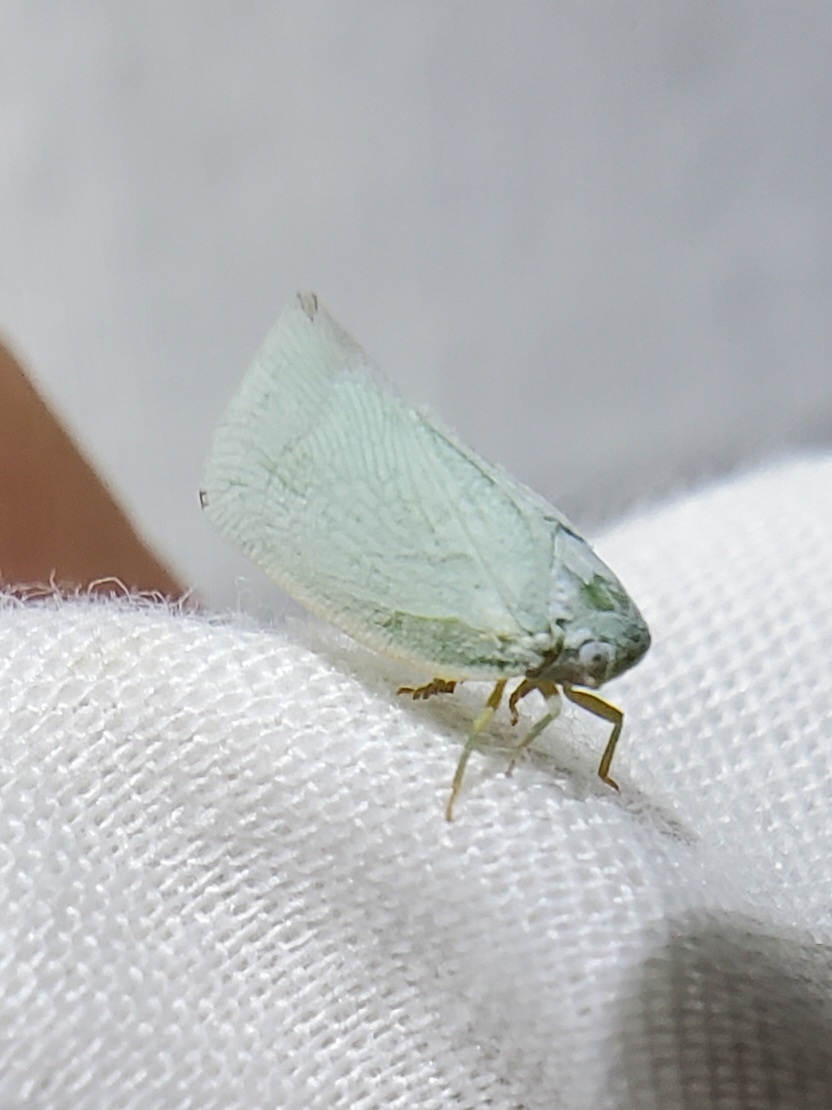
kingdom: Animalia
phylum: Arthropoda
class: Insecta
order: Hemiptera
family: Flatidae
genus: Flatormenis
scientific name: Flatormenis proxima
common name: Northern flatid planthopper
